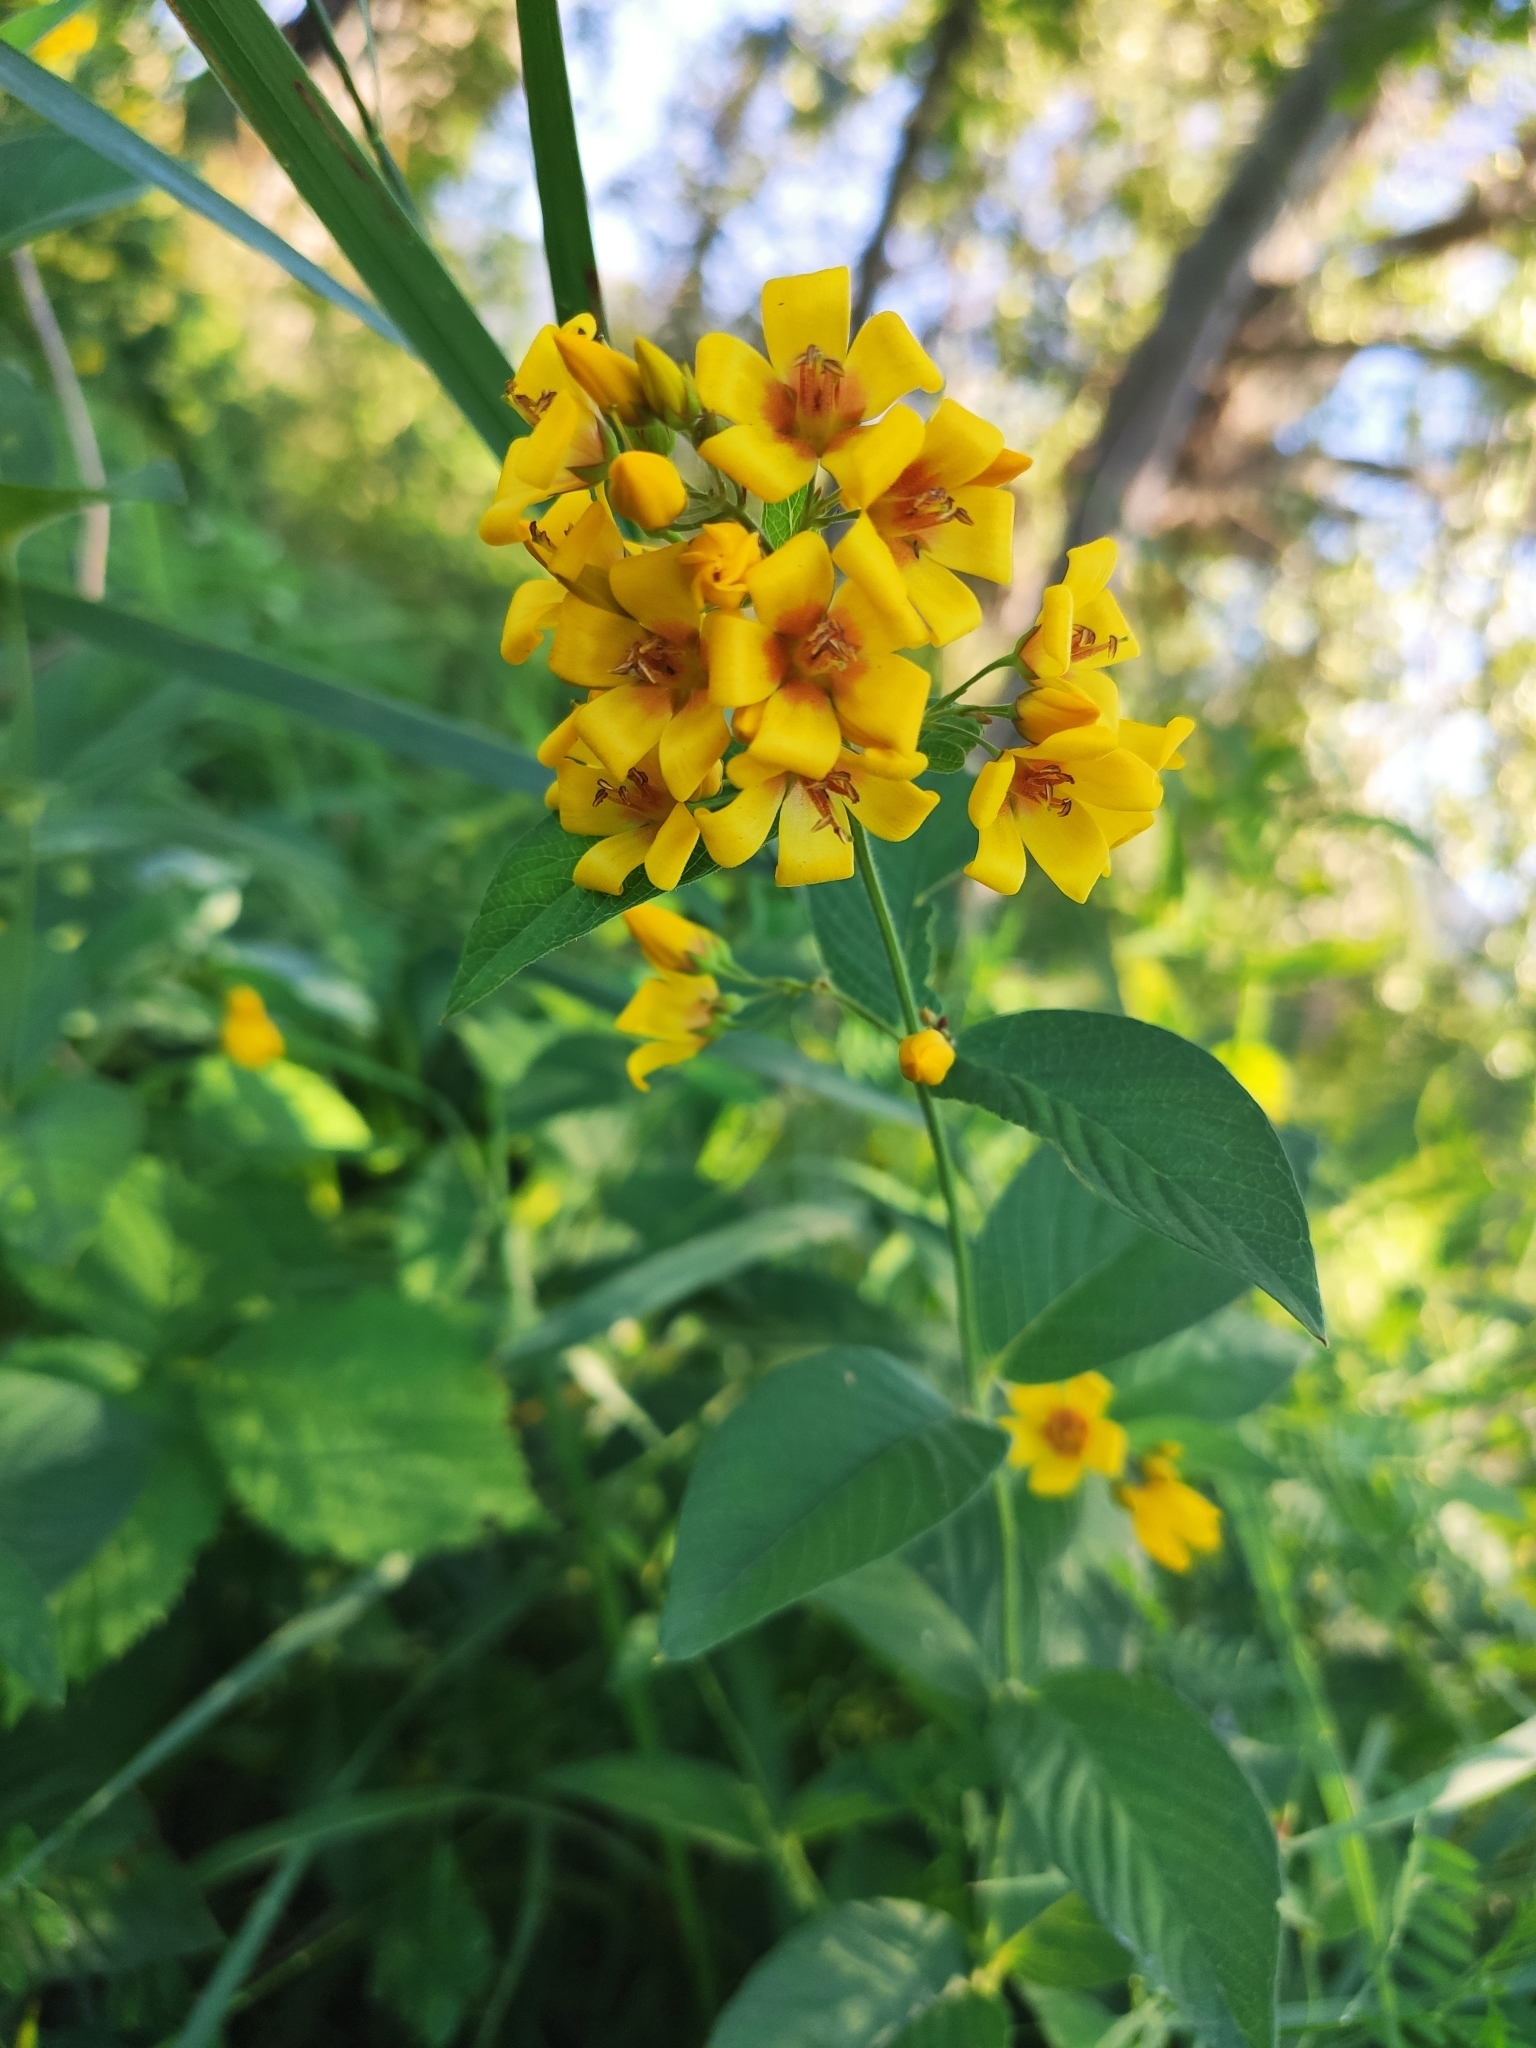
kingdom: Plantae
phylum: Tracheophyta
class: Magnoliopsida
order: Ericales
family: Primulaceae
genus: Lysimachia
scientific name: Lysimachia vulgaris
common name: Yellow loosestrife
